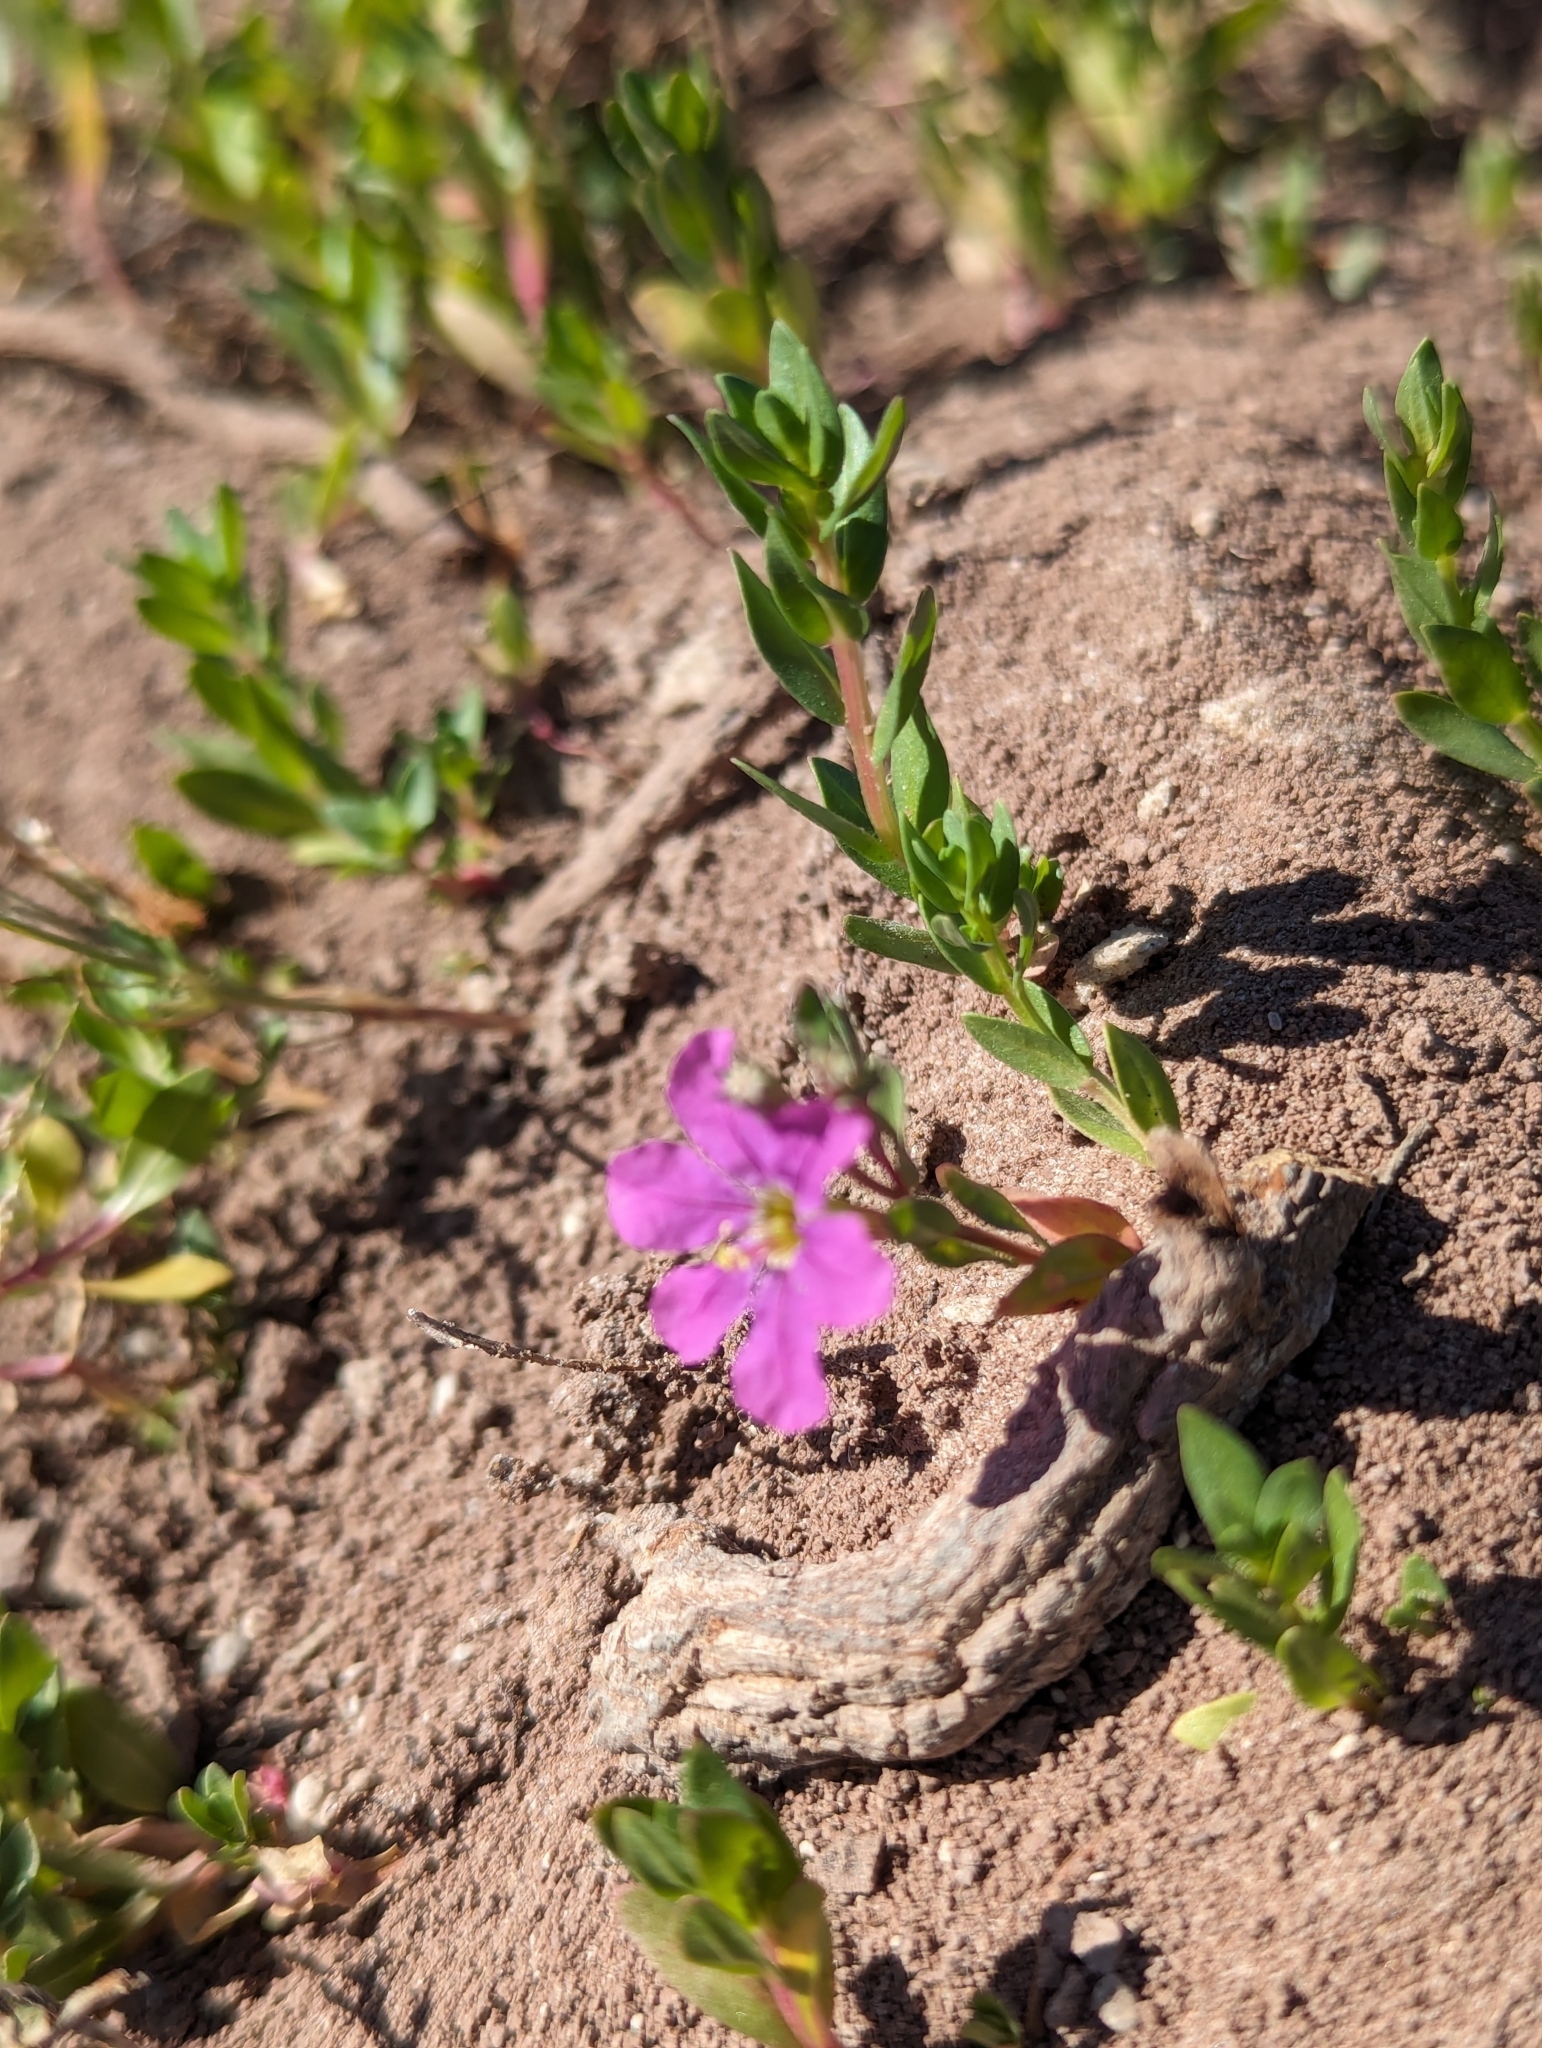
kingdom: Plantae
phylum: Tracheophyta
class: Magnoliopsida
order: Myrtales
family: Lythraceae
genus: Lythrum
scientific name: Lythrum bryantii
